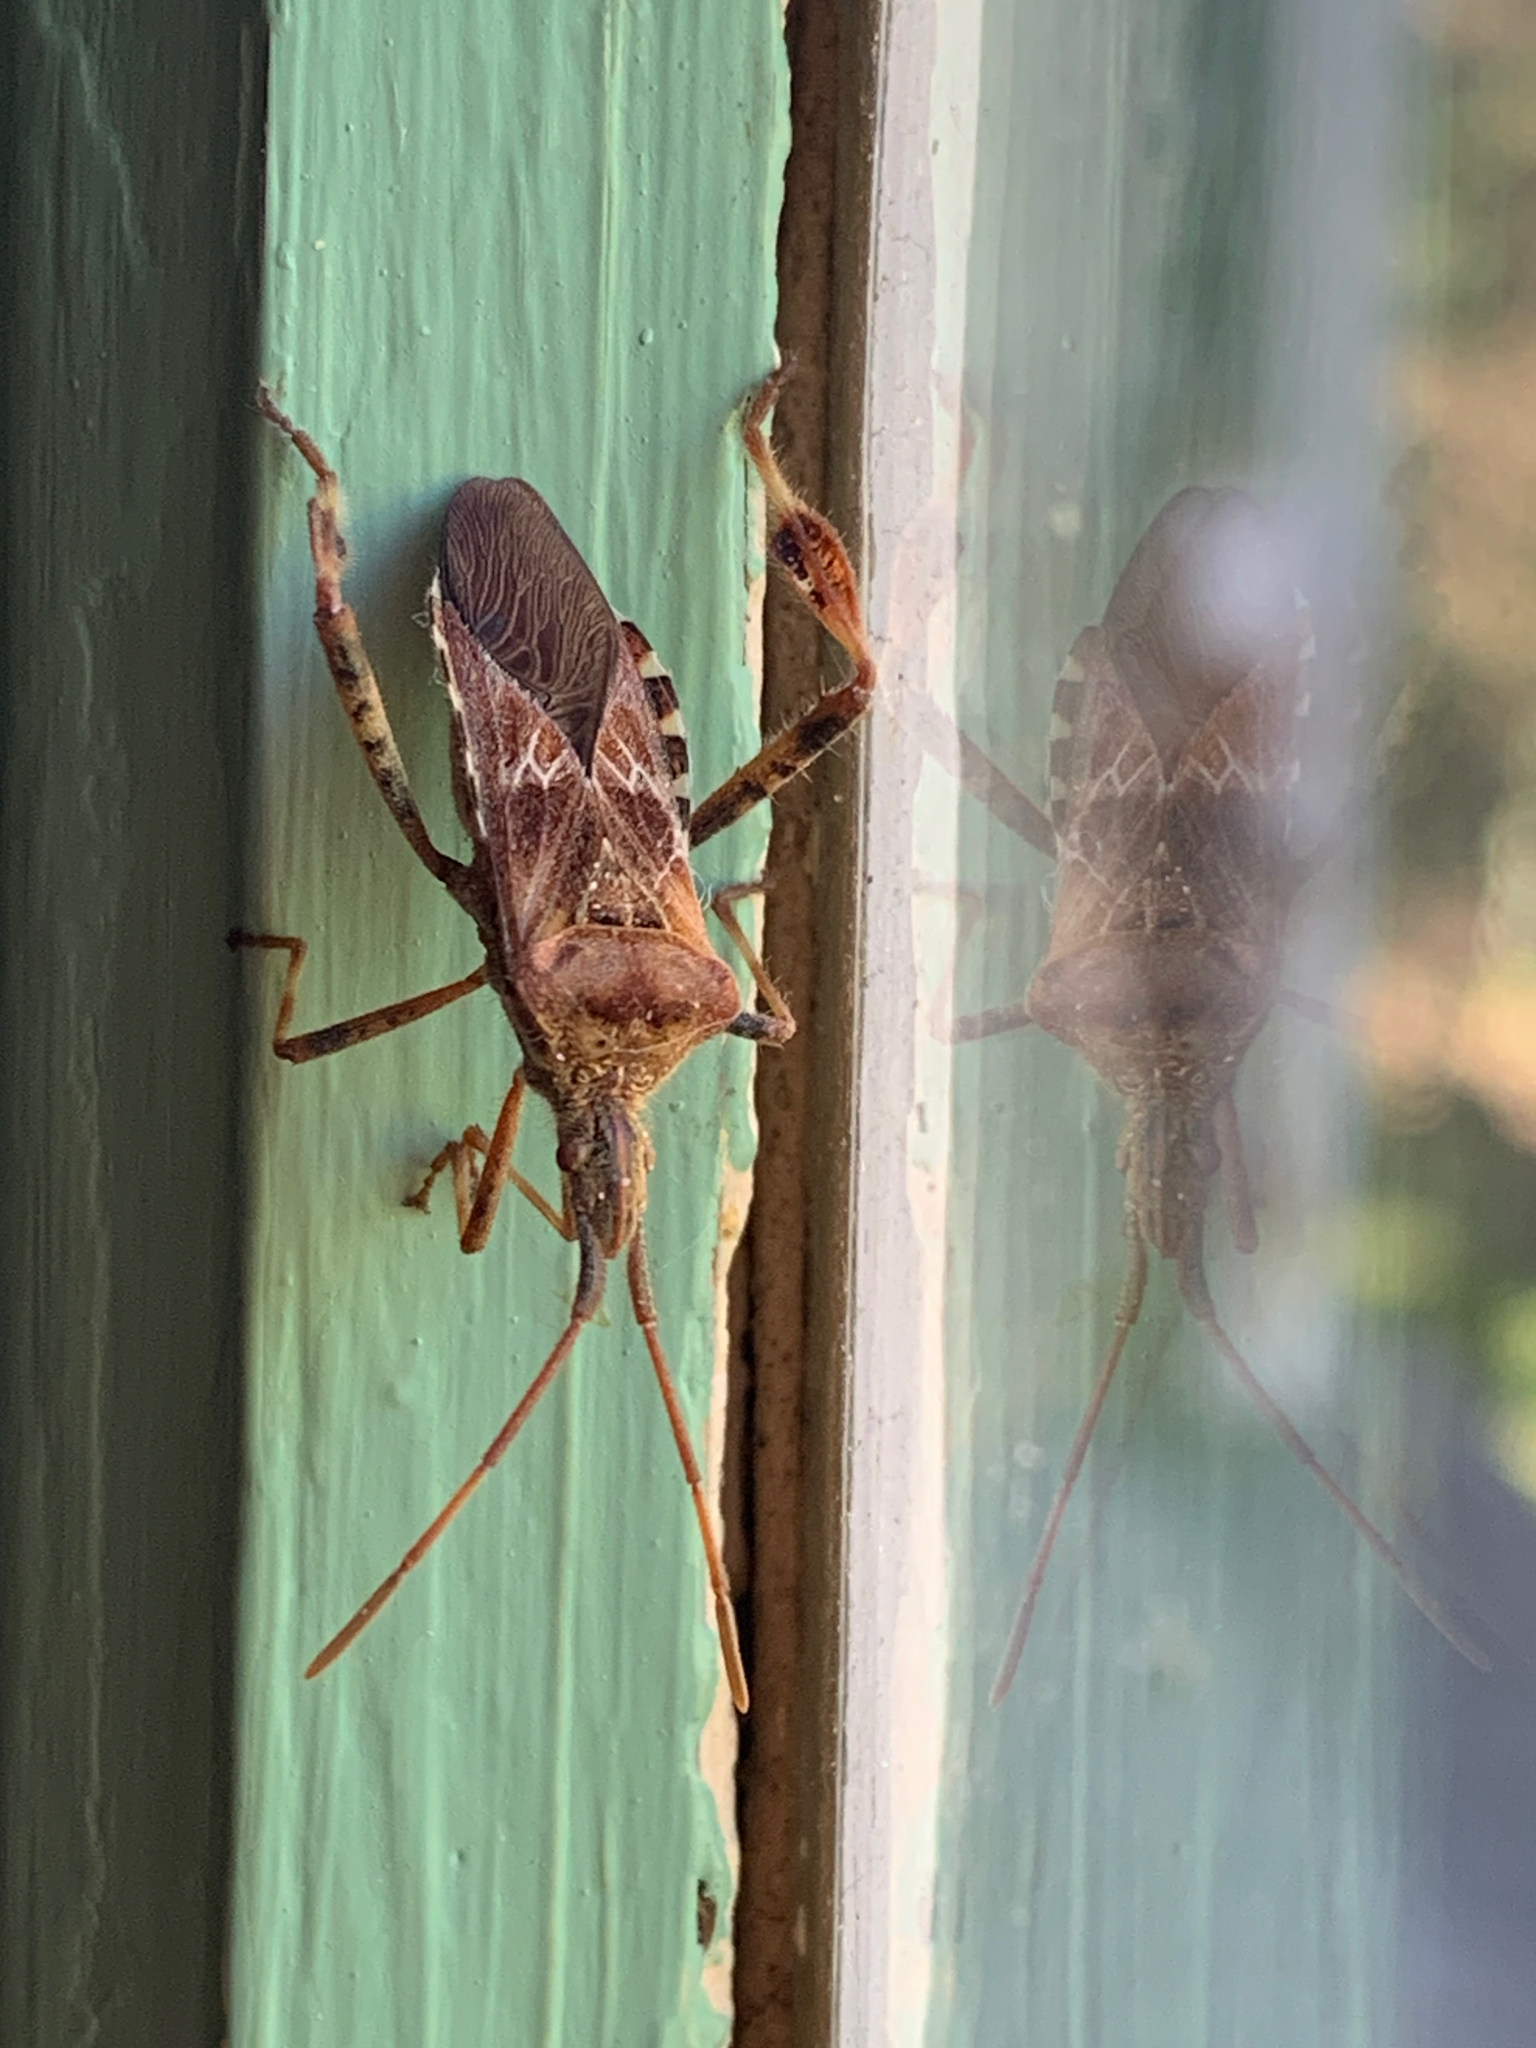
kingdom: Animalia
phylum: Arthropoda
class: Insecta
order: Hemiptera
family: Coreidae
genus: Leptoglossus
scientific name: Leptoglossus occidentalis
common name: Western conifer-seed bug
